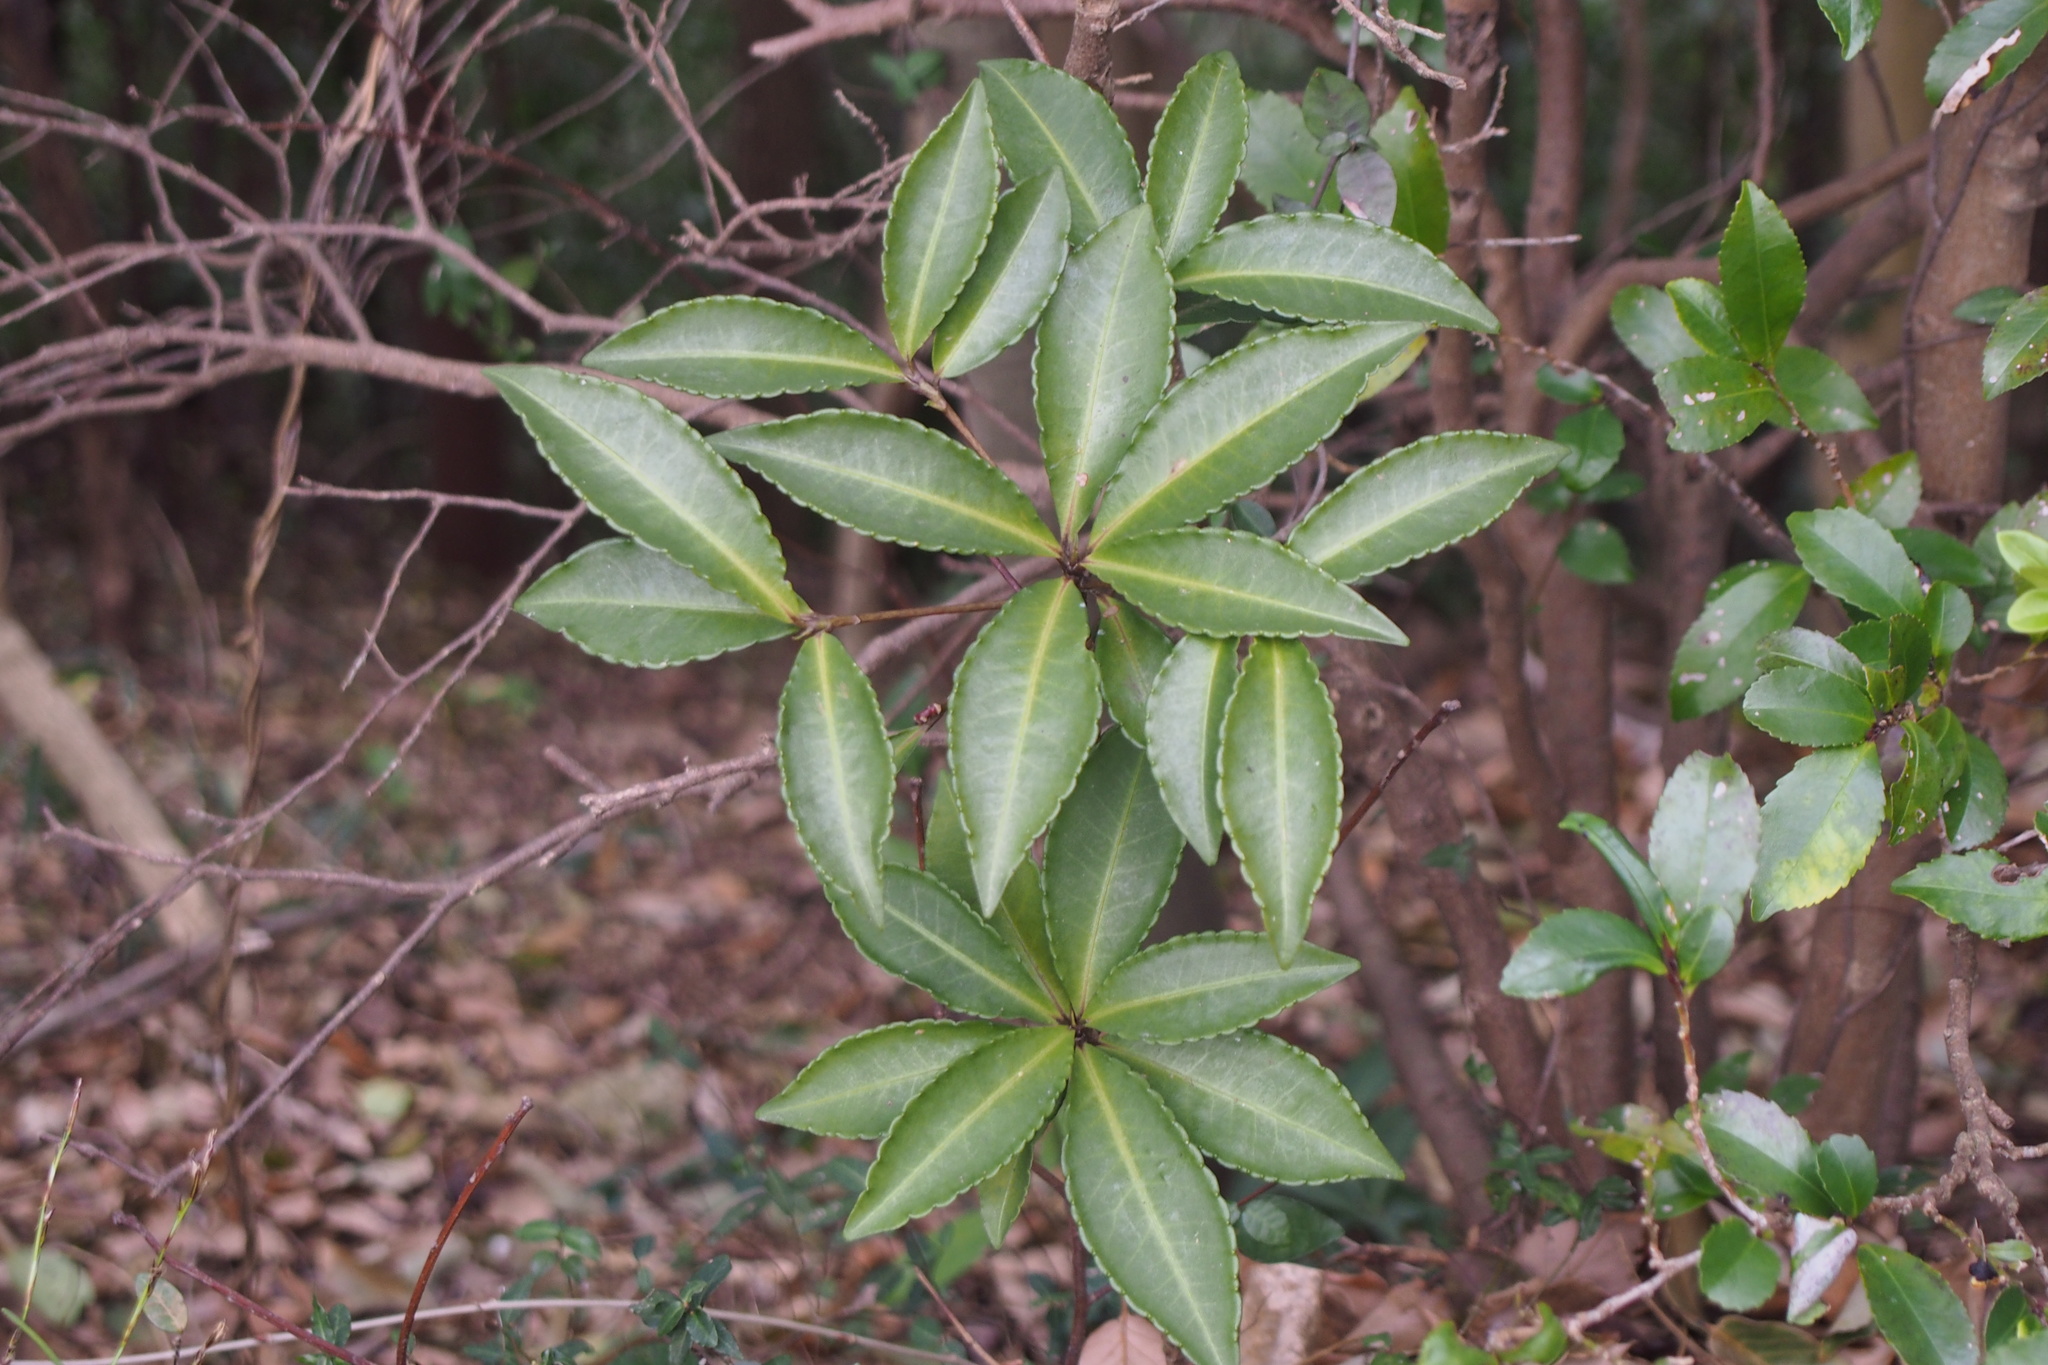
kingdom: Plantae
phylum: Tracheophyta
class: Magnoliopsida
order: Ericales
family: Primulaceae
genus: Ardisia
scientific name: Ardisia crenata
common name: Hen's eyes
